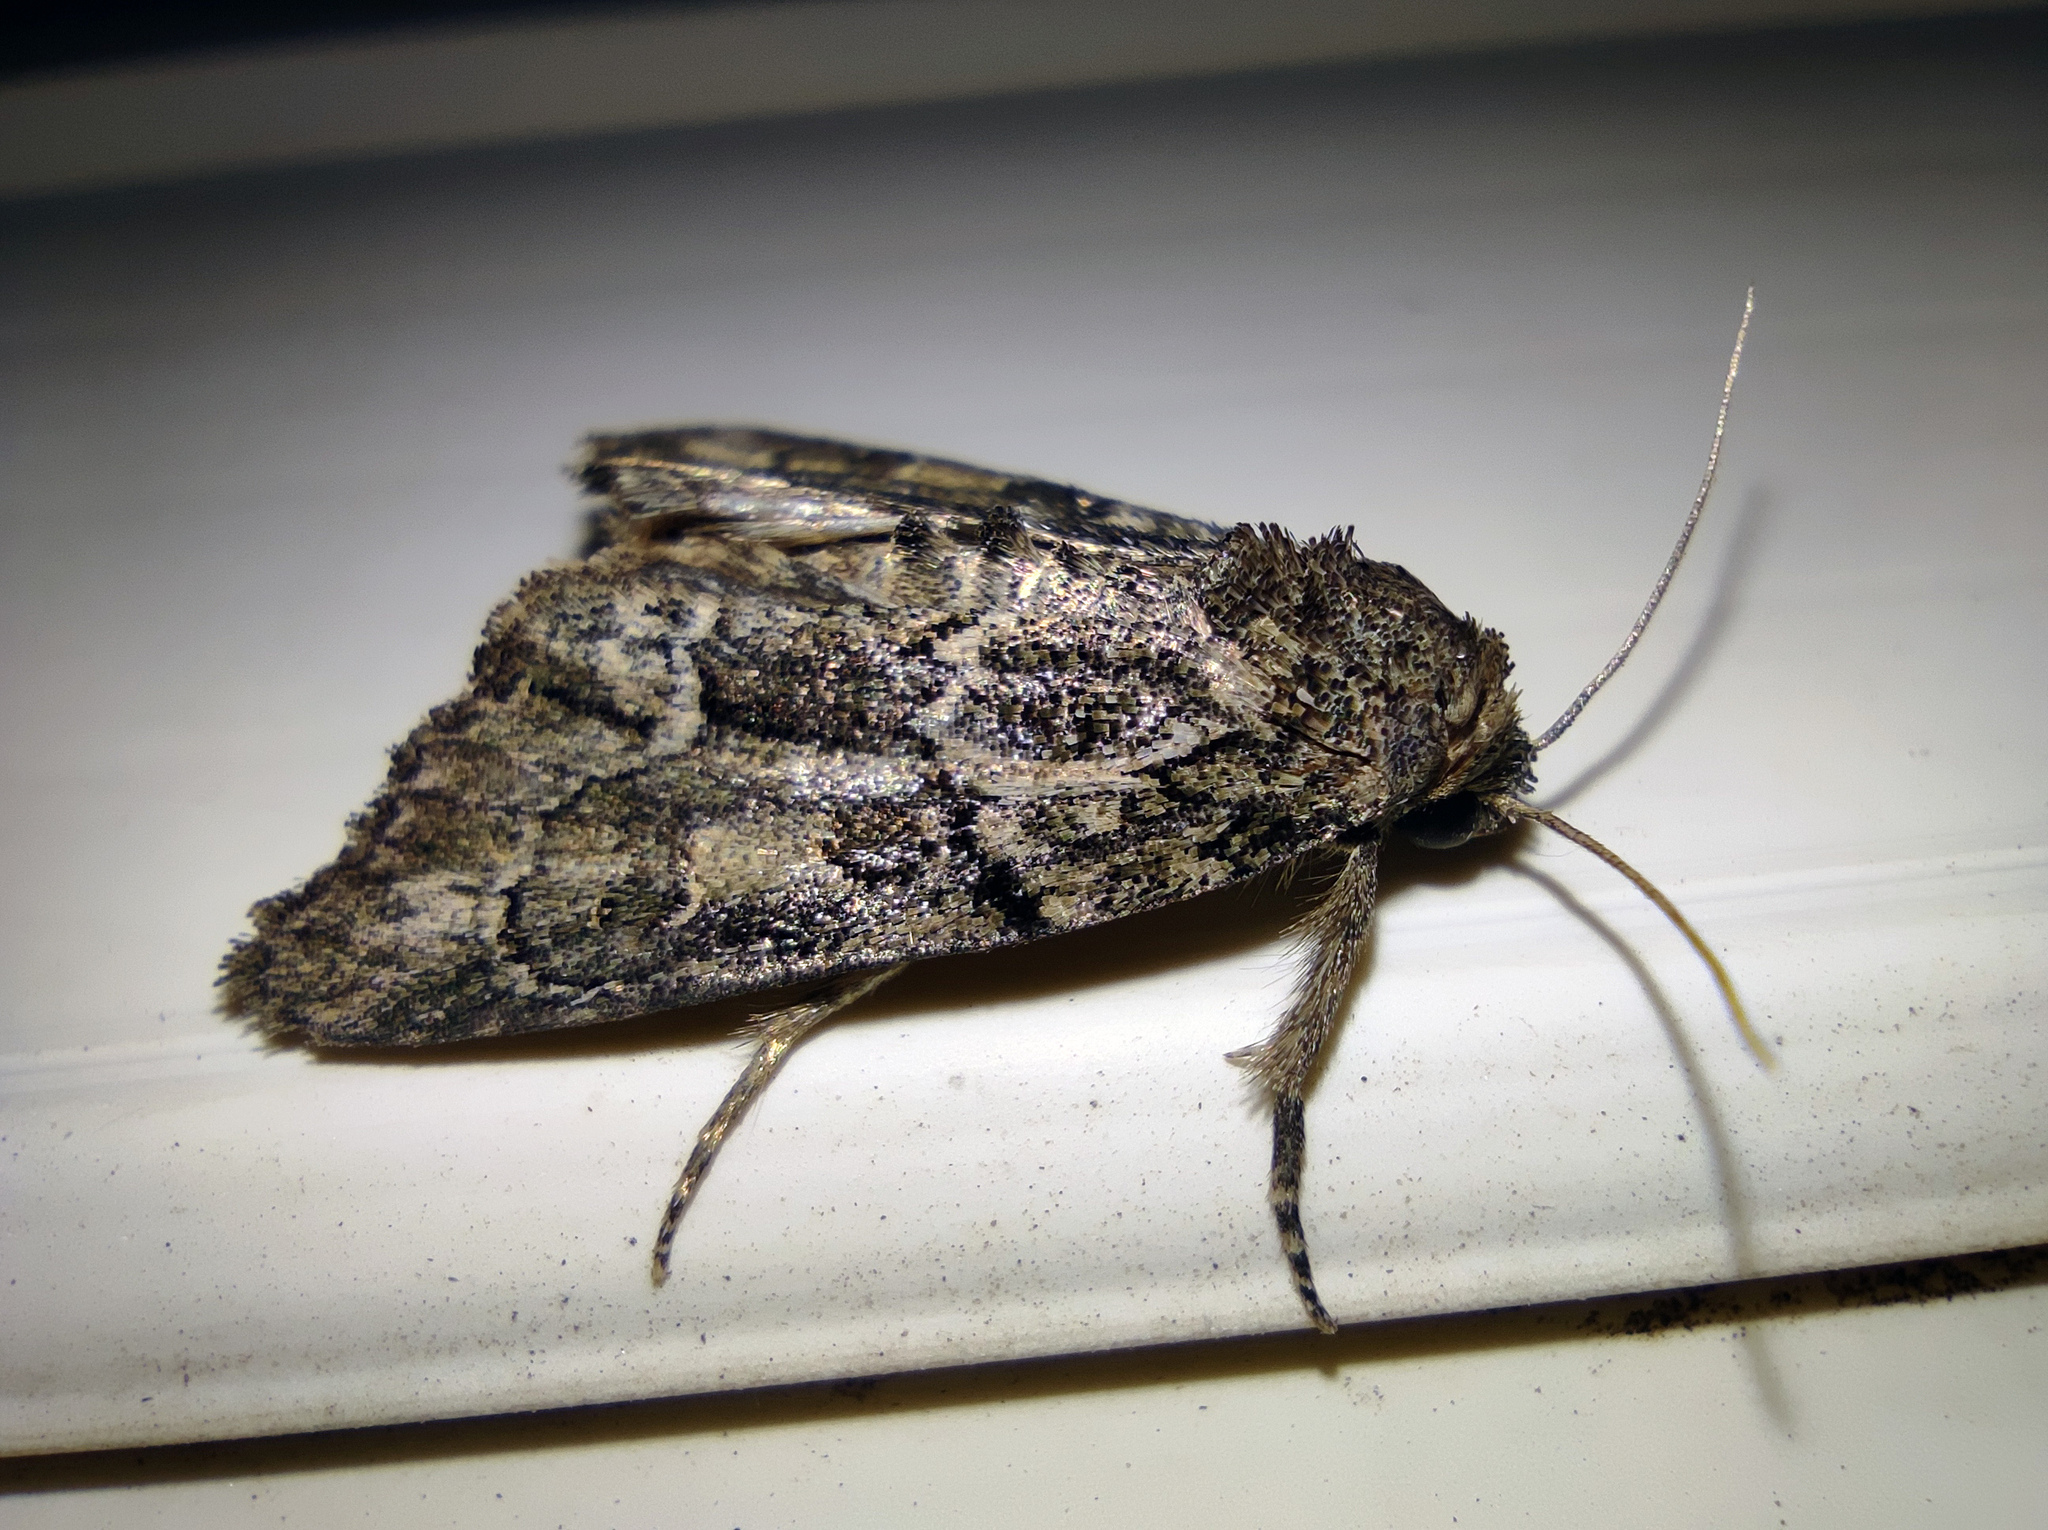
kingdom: Animalia
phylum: Arthropoda
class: Insecta
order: Lepidoptera
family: Noctuidae
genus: Cryphia
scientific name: Cryphia fraudatricula
